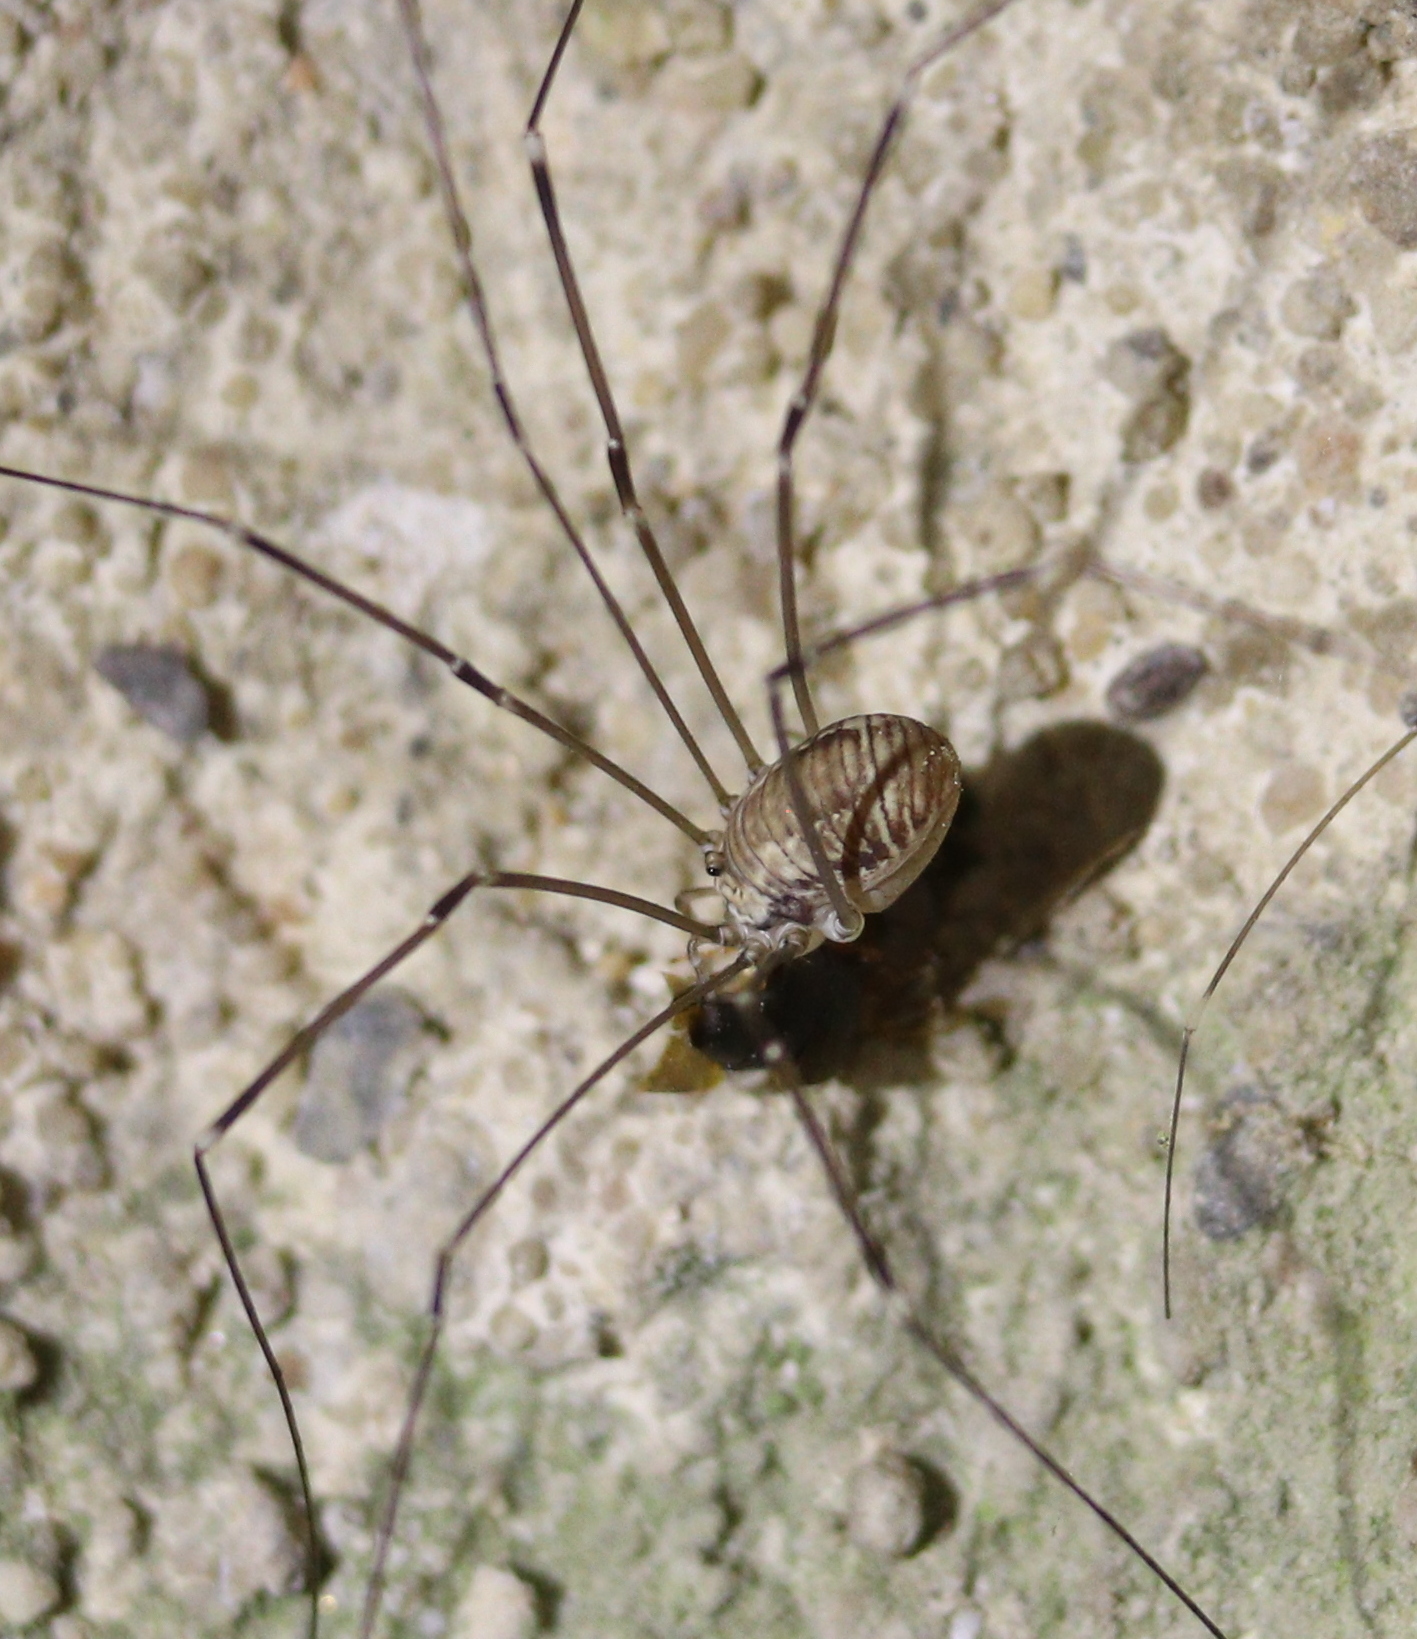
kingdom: Animalia
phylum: Arthropoda
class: Arachnida
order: Opiliones
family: Sclerosomatidae
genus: Leiobunum
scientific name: Leiobunum limbatum
